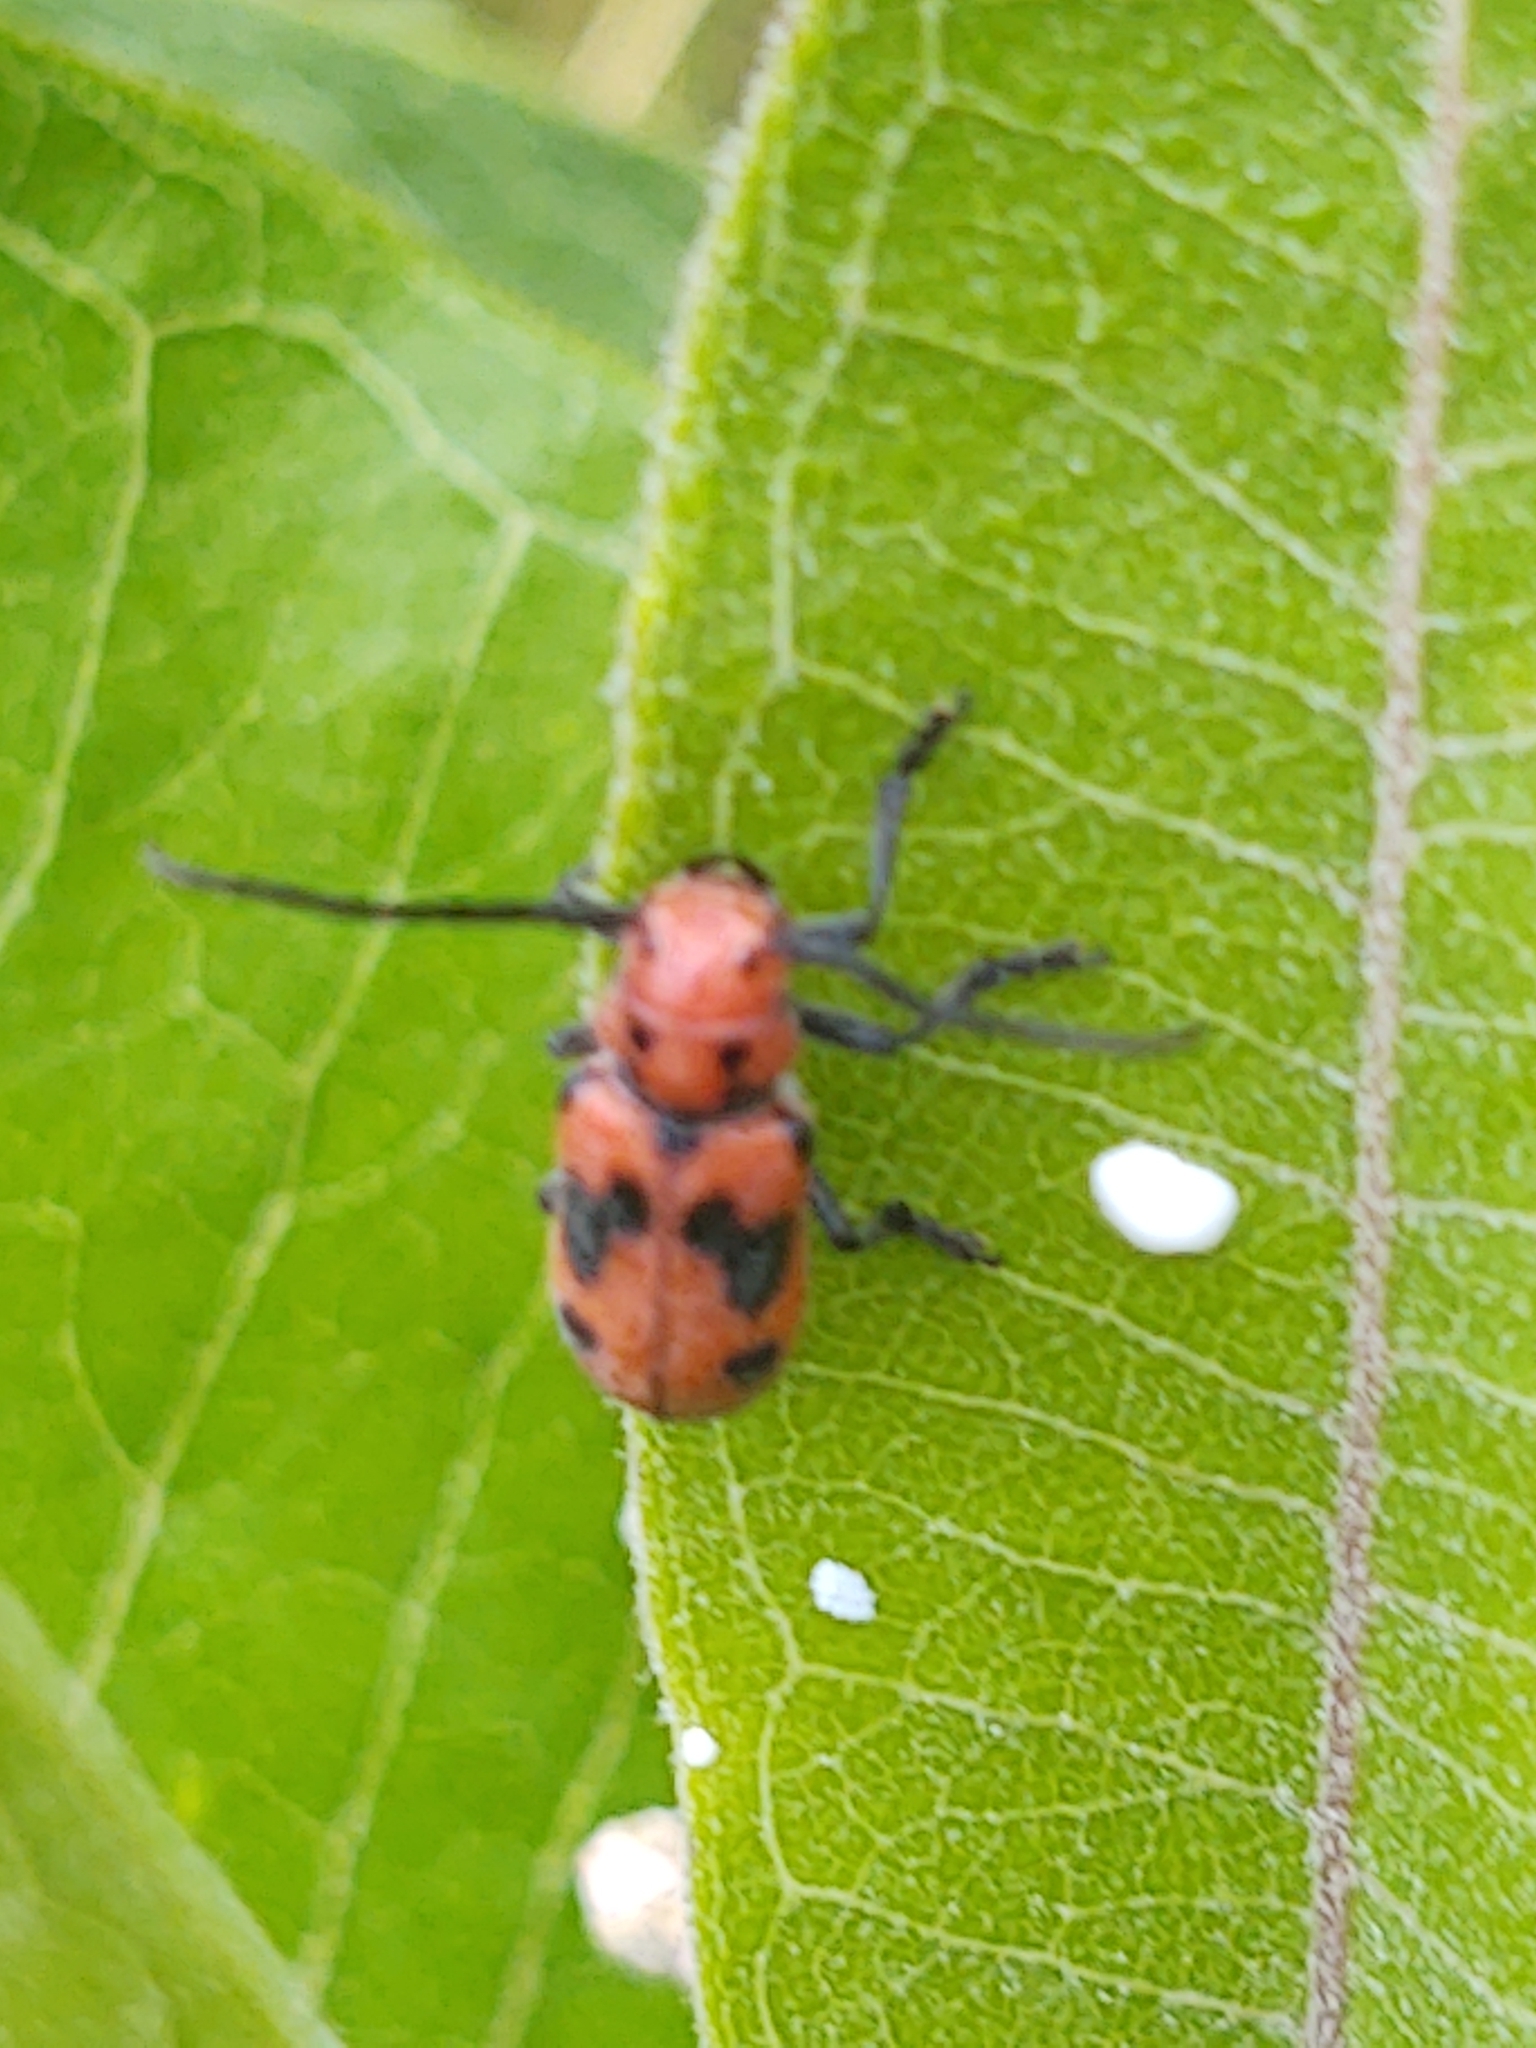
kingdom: Animalia
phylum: Arthropoda
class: Insecta
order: Coleoptera
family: Cerambycidae
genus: Tetraopes
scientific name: Tetraopes tetrophthalmus
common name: Red milkweed beetle
